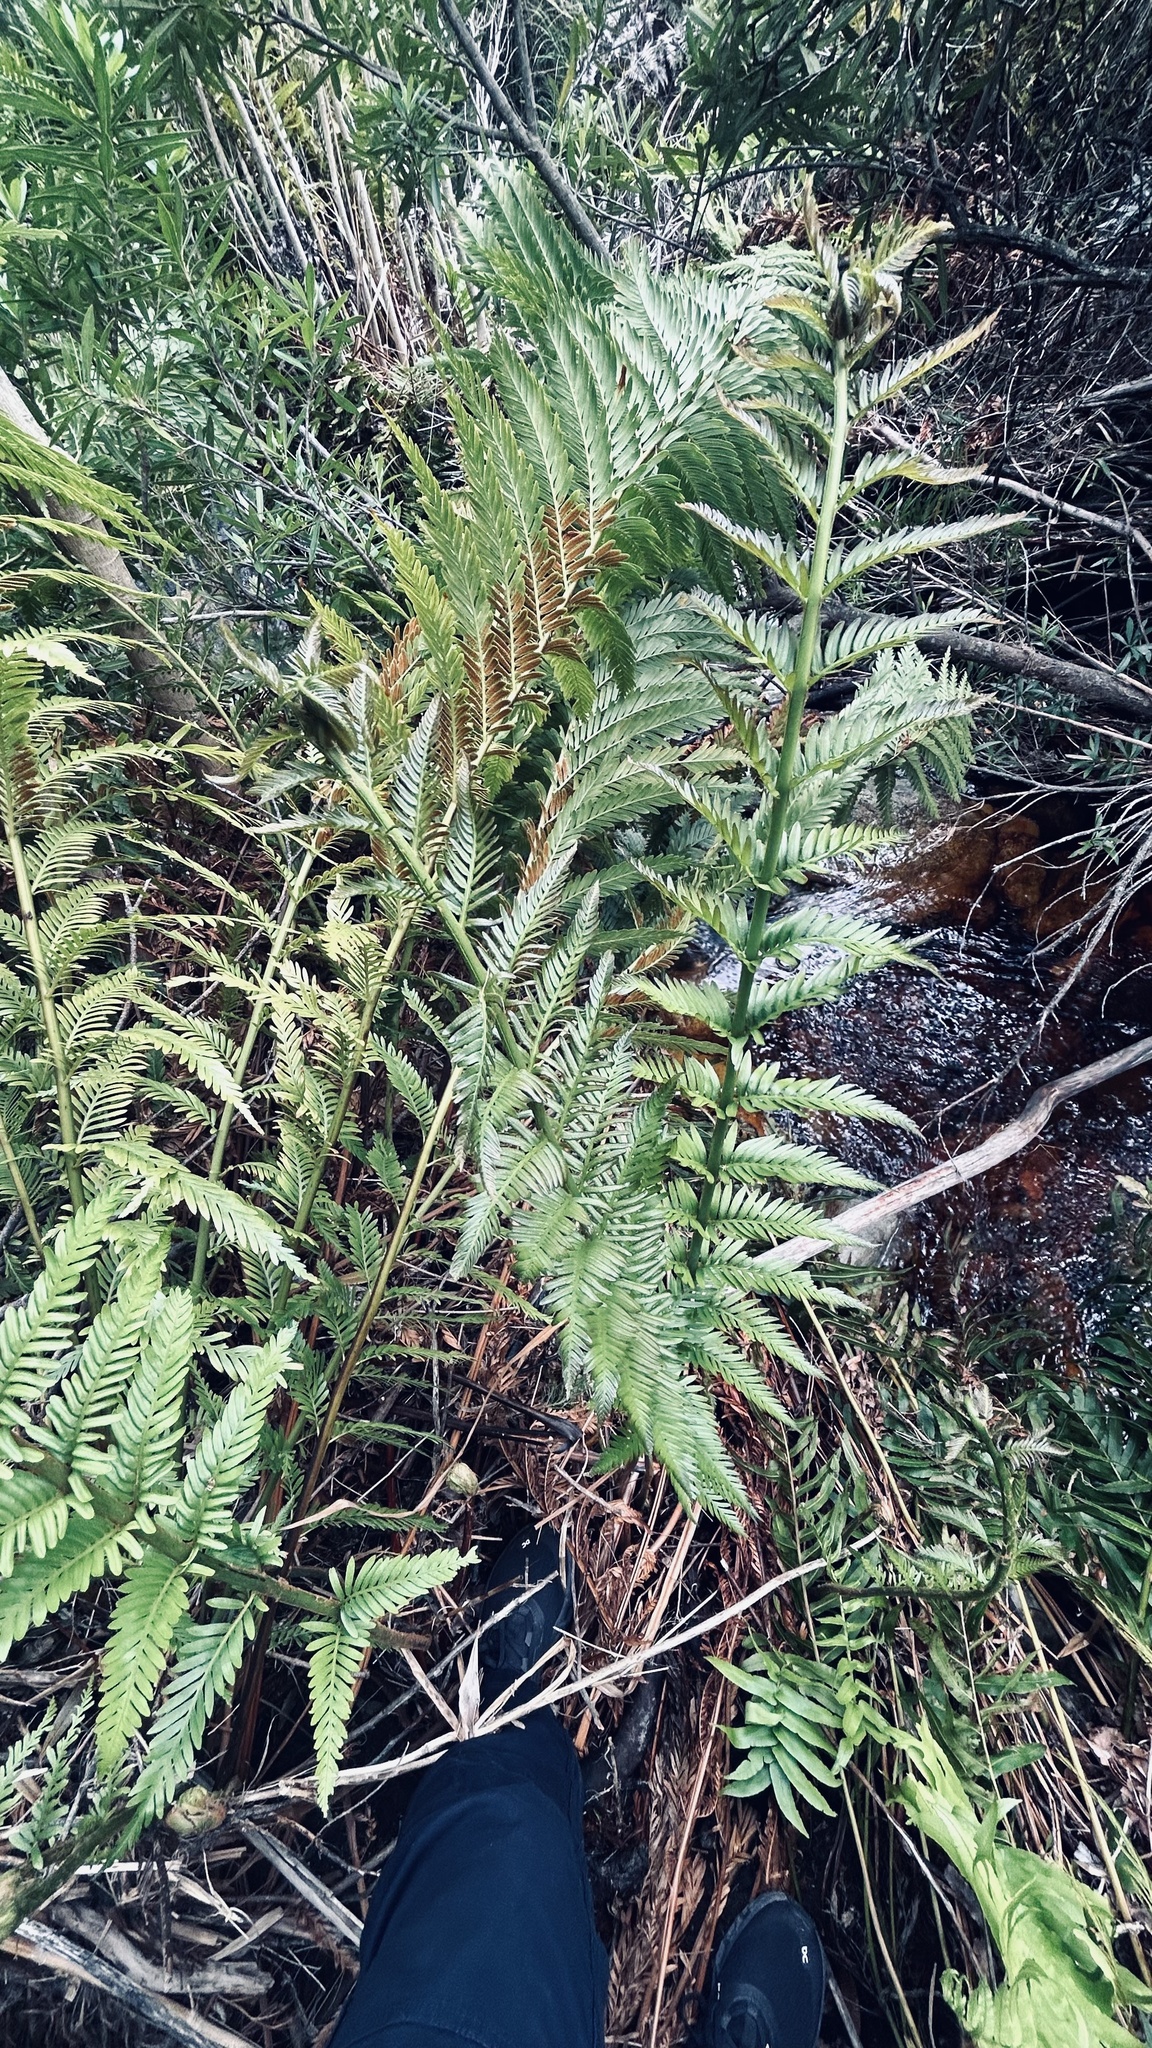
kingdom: Plantae
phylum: Tracheophyta
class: Polypodiopsida
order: Osmundales
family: Osmundaceae
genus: Todea
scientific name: Todea barbara
